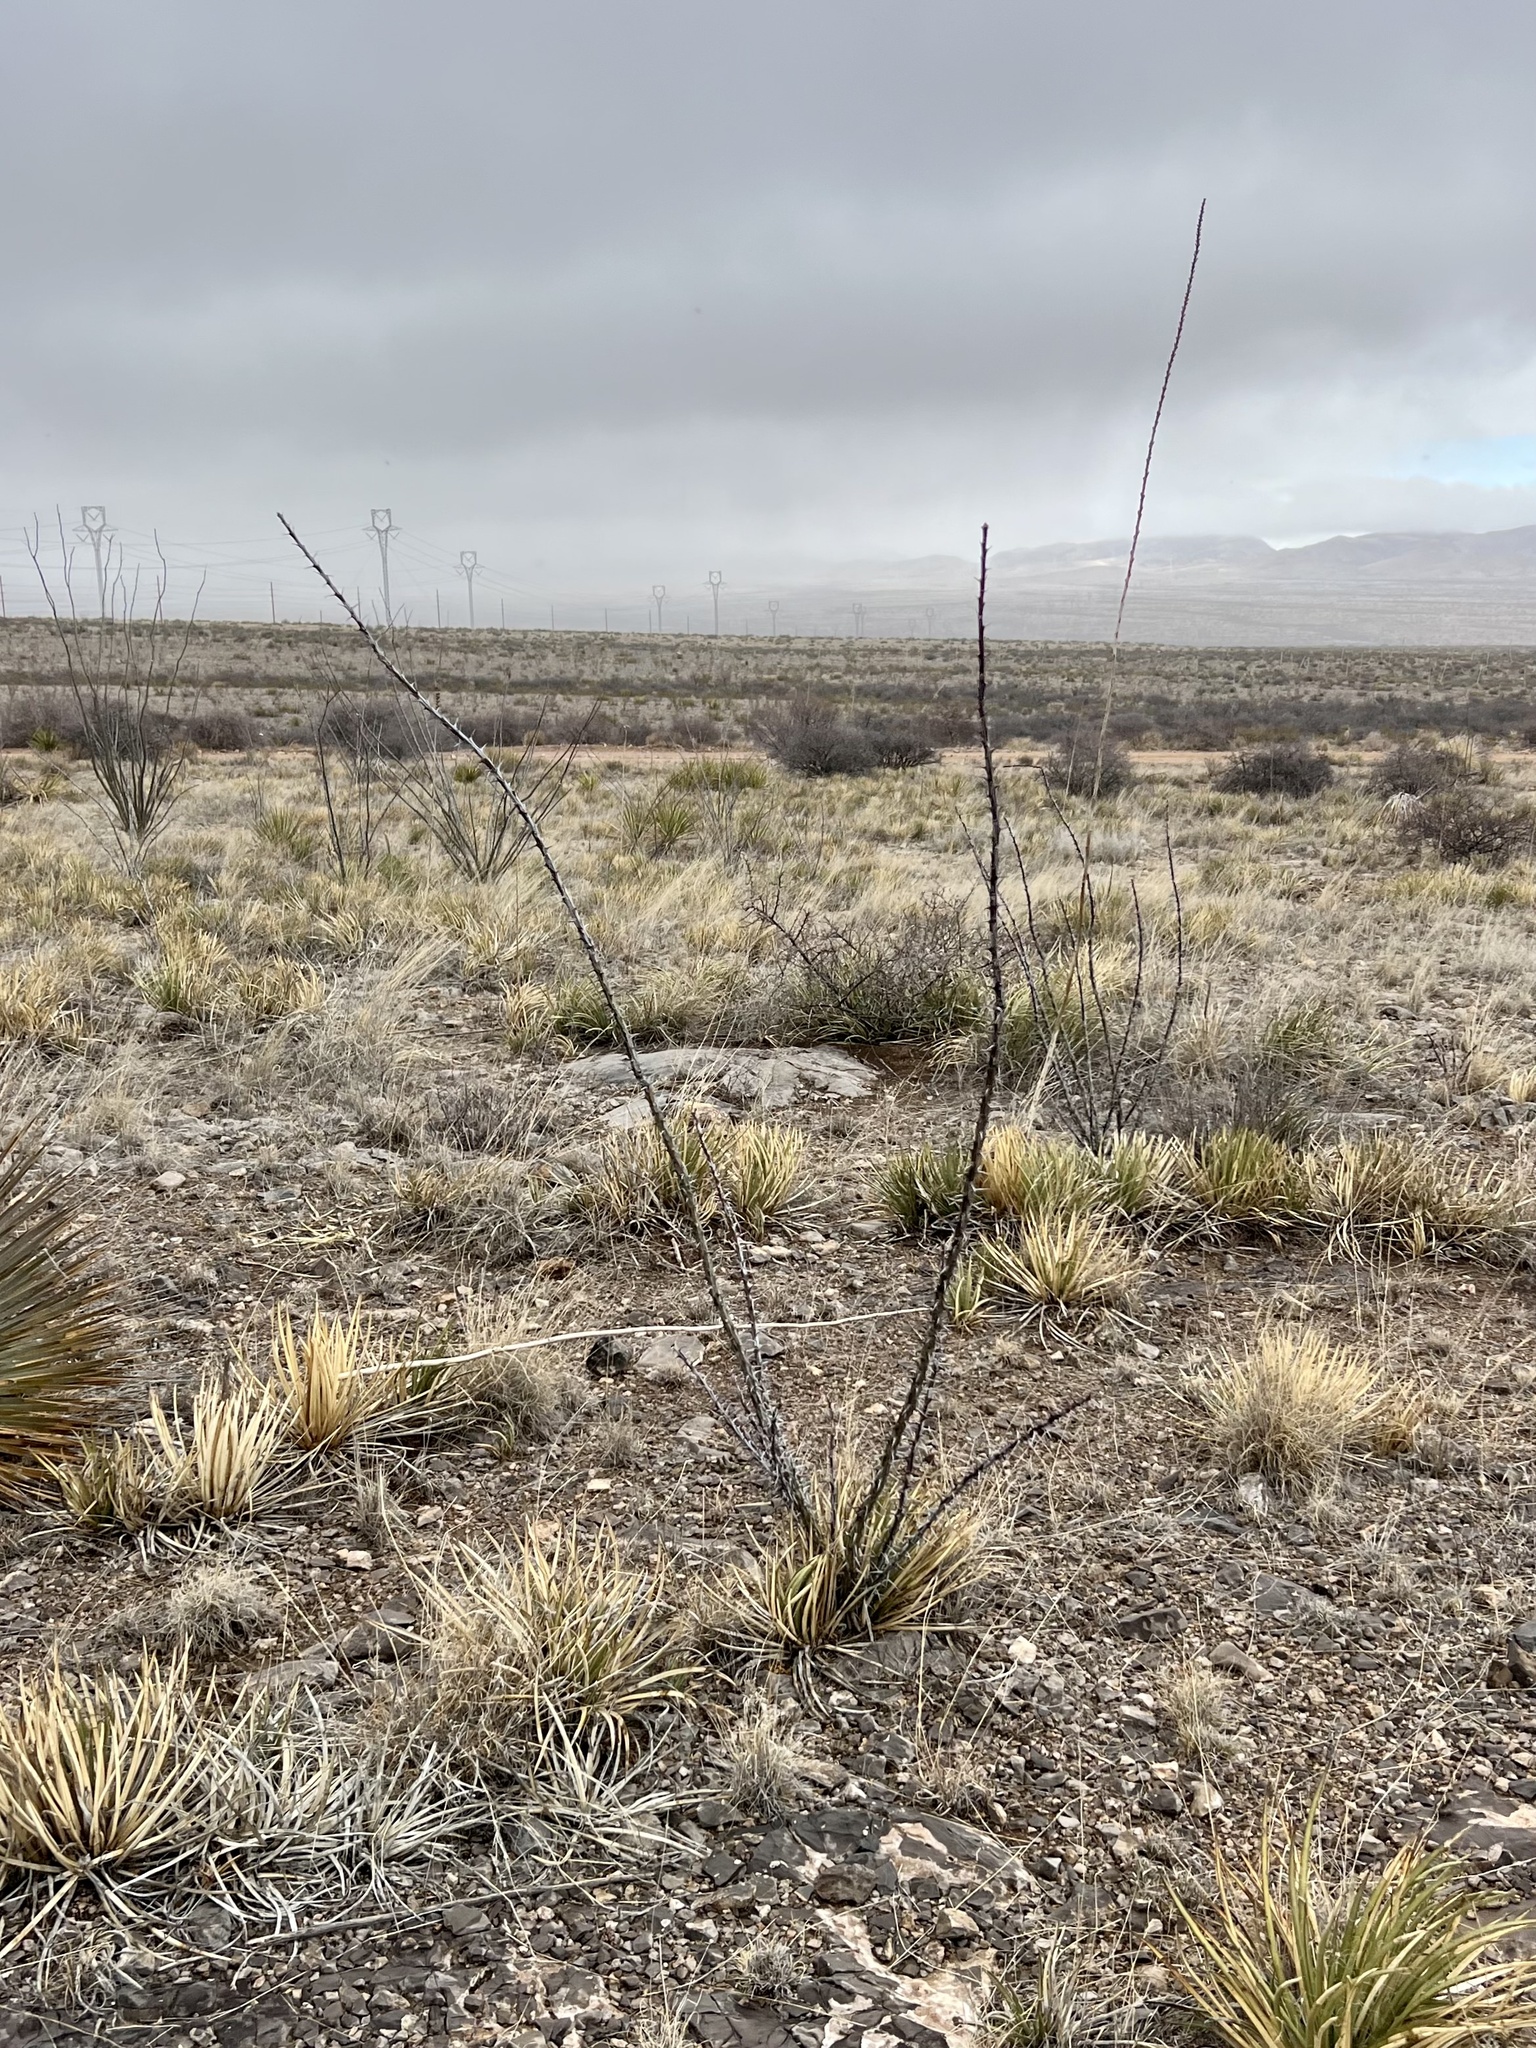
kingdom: Plantae
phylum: Tracheophyta
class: Magnoliopsida
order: Ericales
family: Fouquieriaceae
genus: Fouquieria
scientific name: Fouquieria splendens
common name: Vine-cactus
